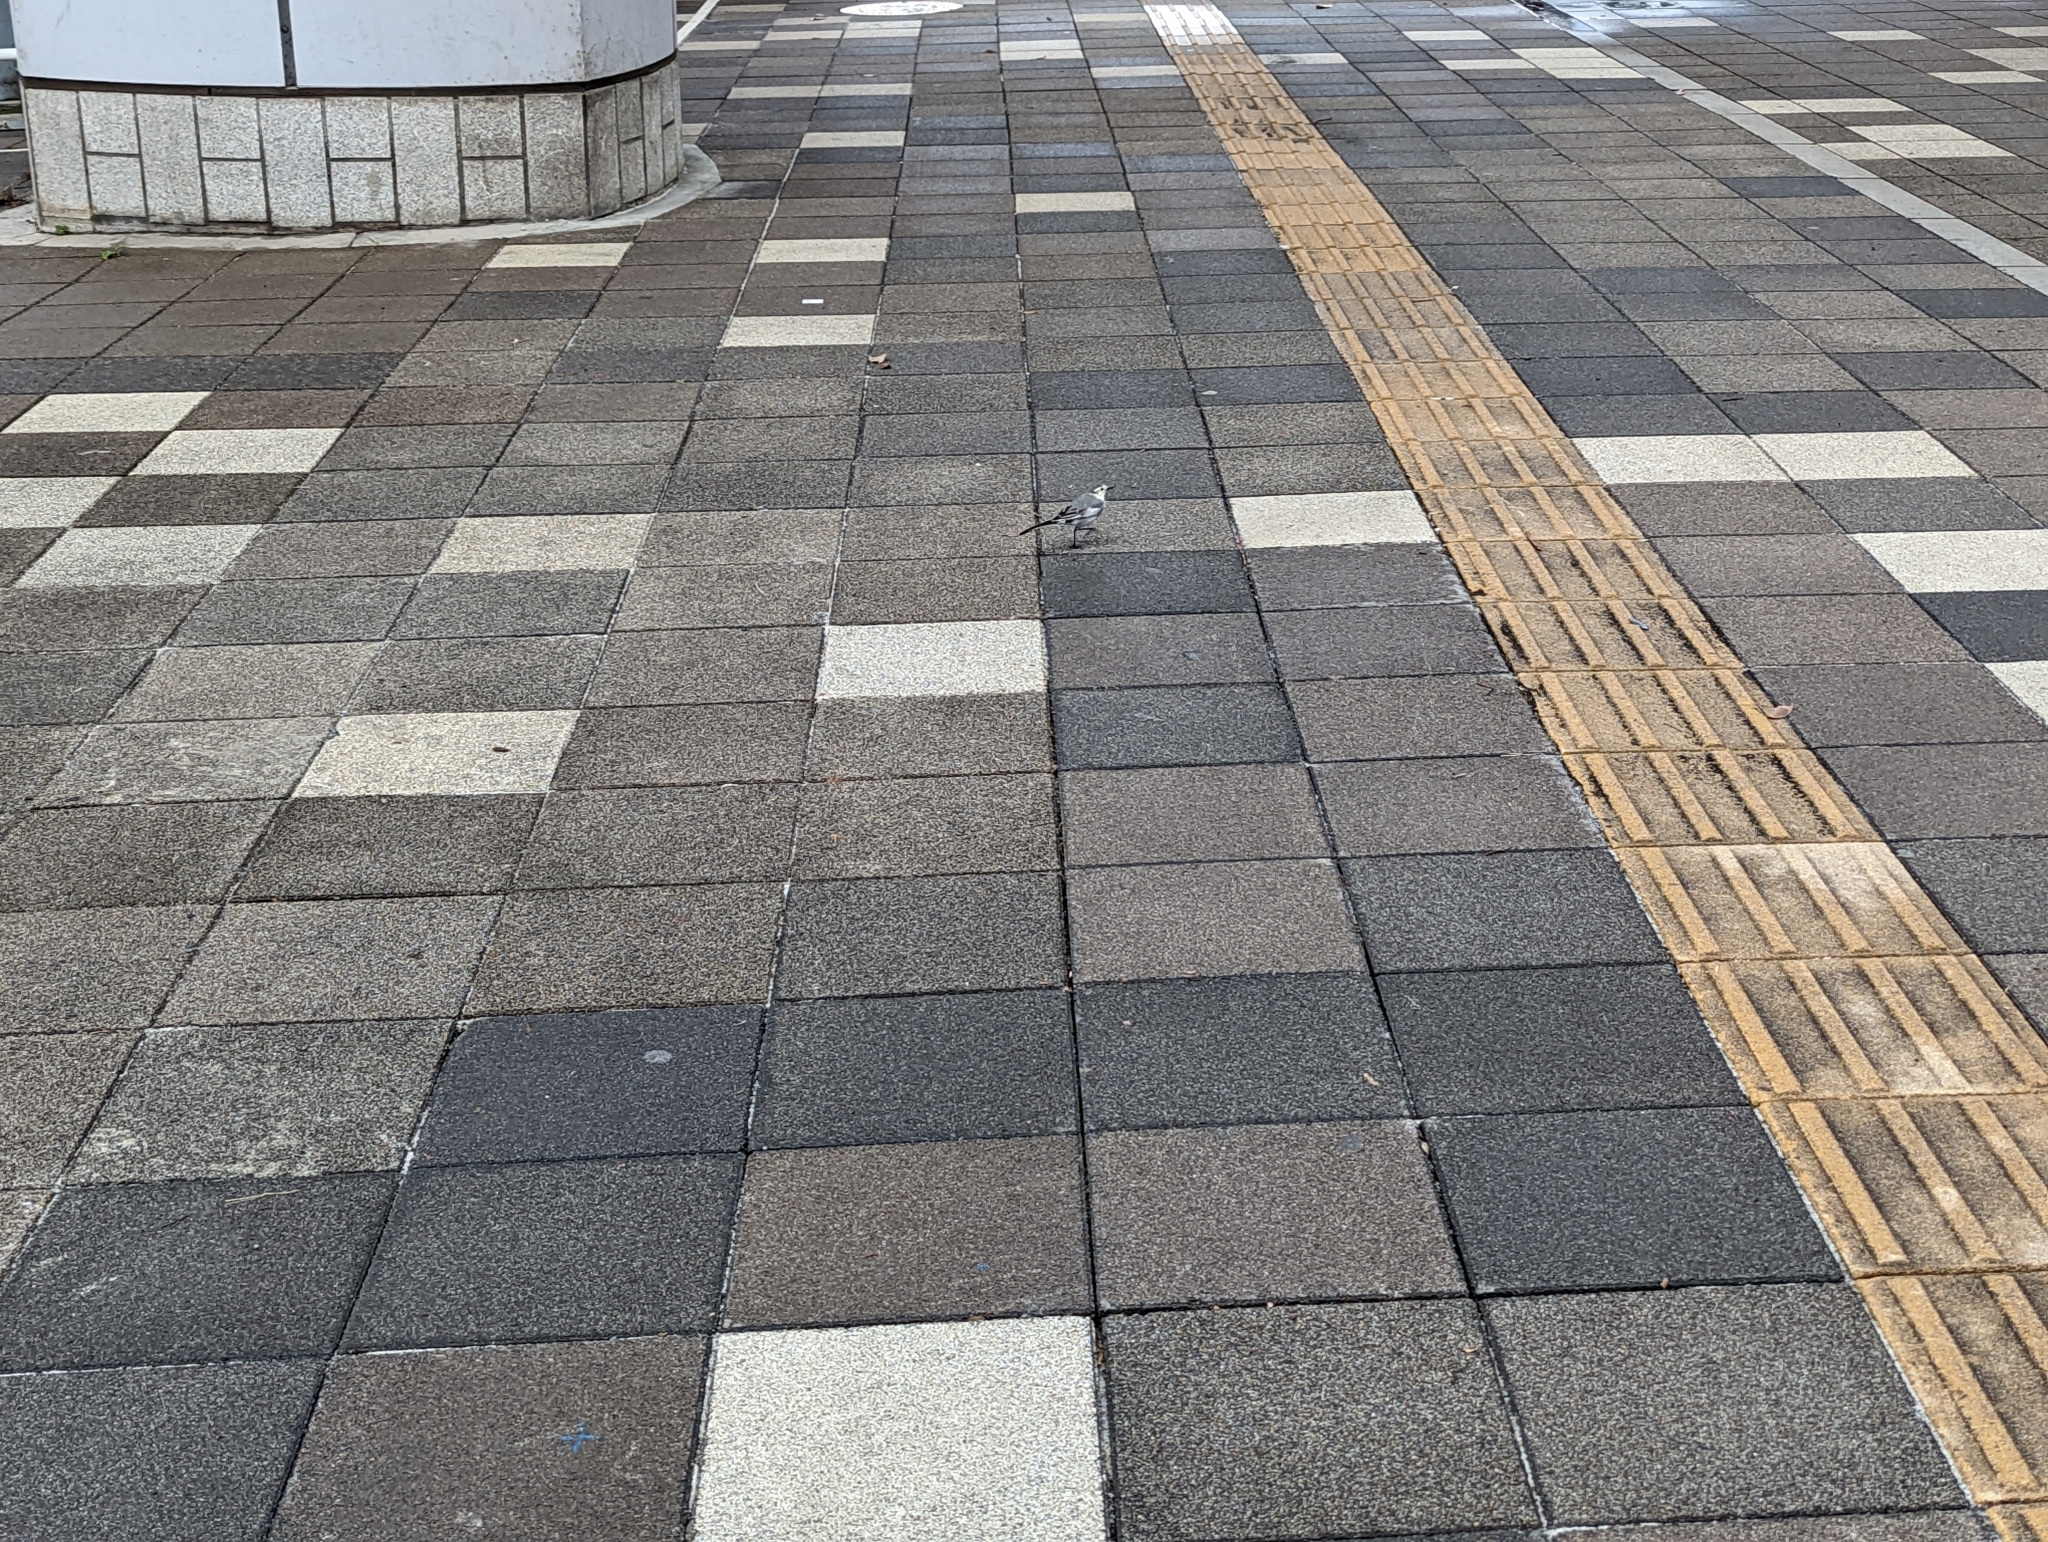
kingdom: Animalia
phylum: Chordata
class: Aves
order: Passeriformes
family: Motacillidae
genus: Motacilla
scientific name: Motacilla alba
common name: White wagtail
